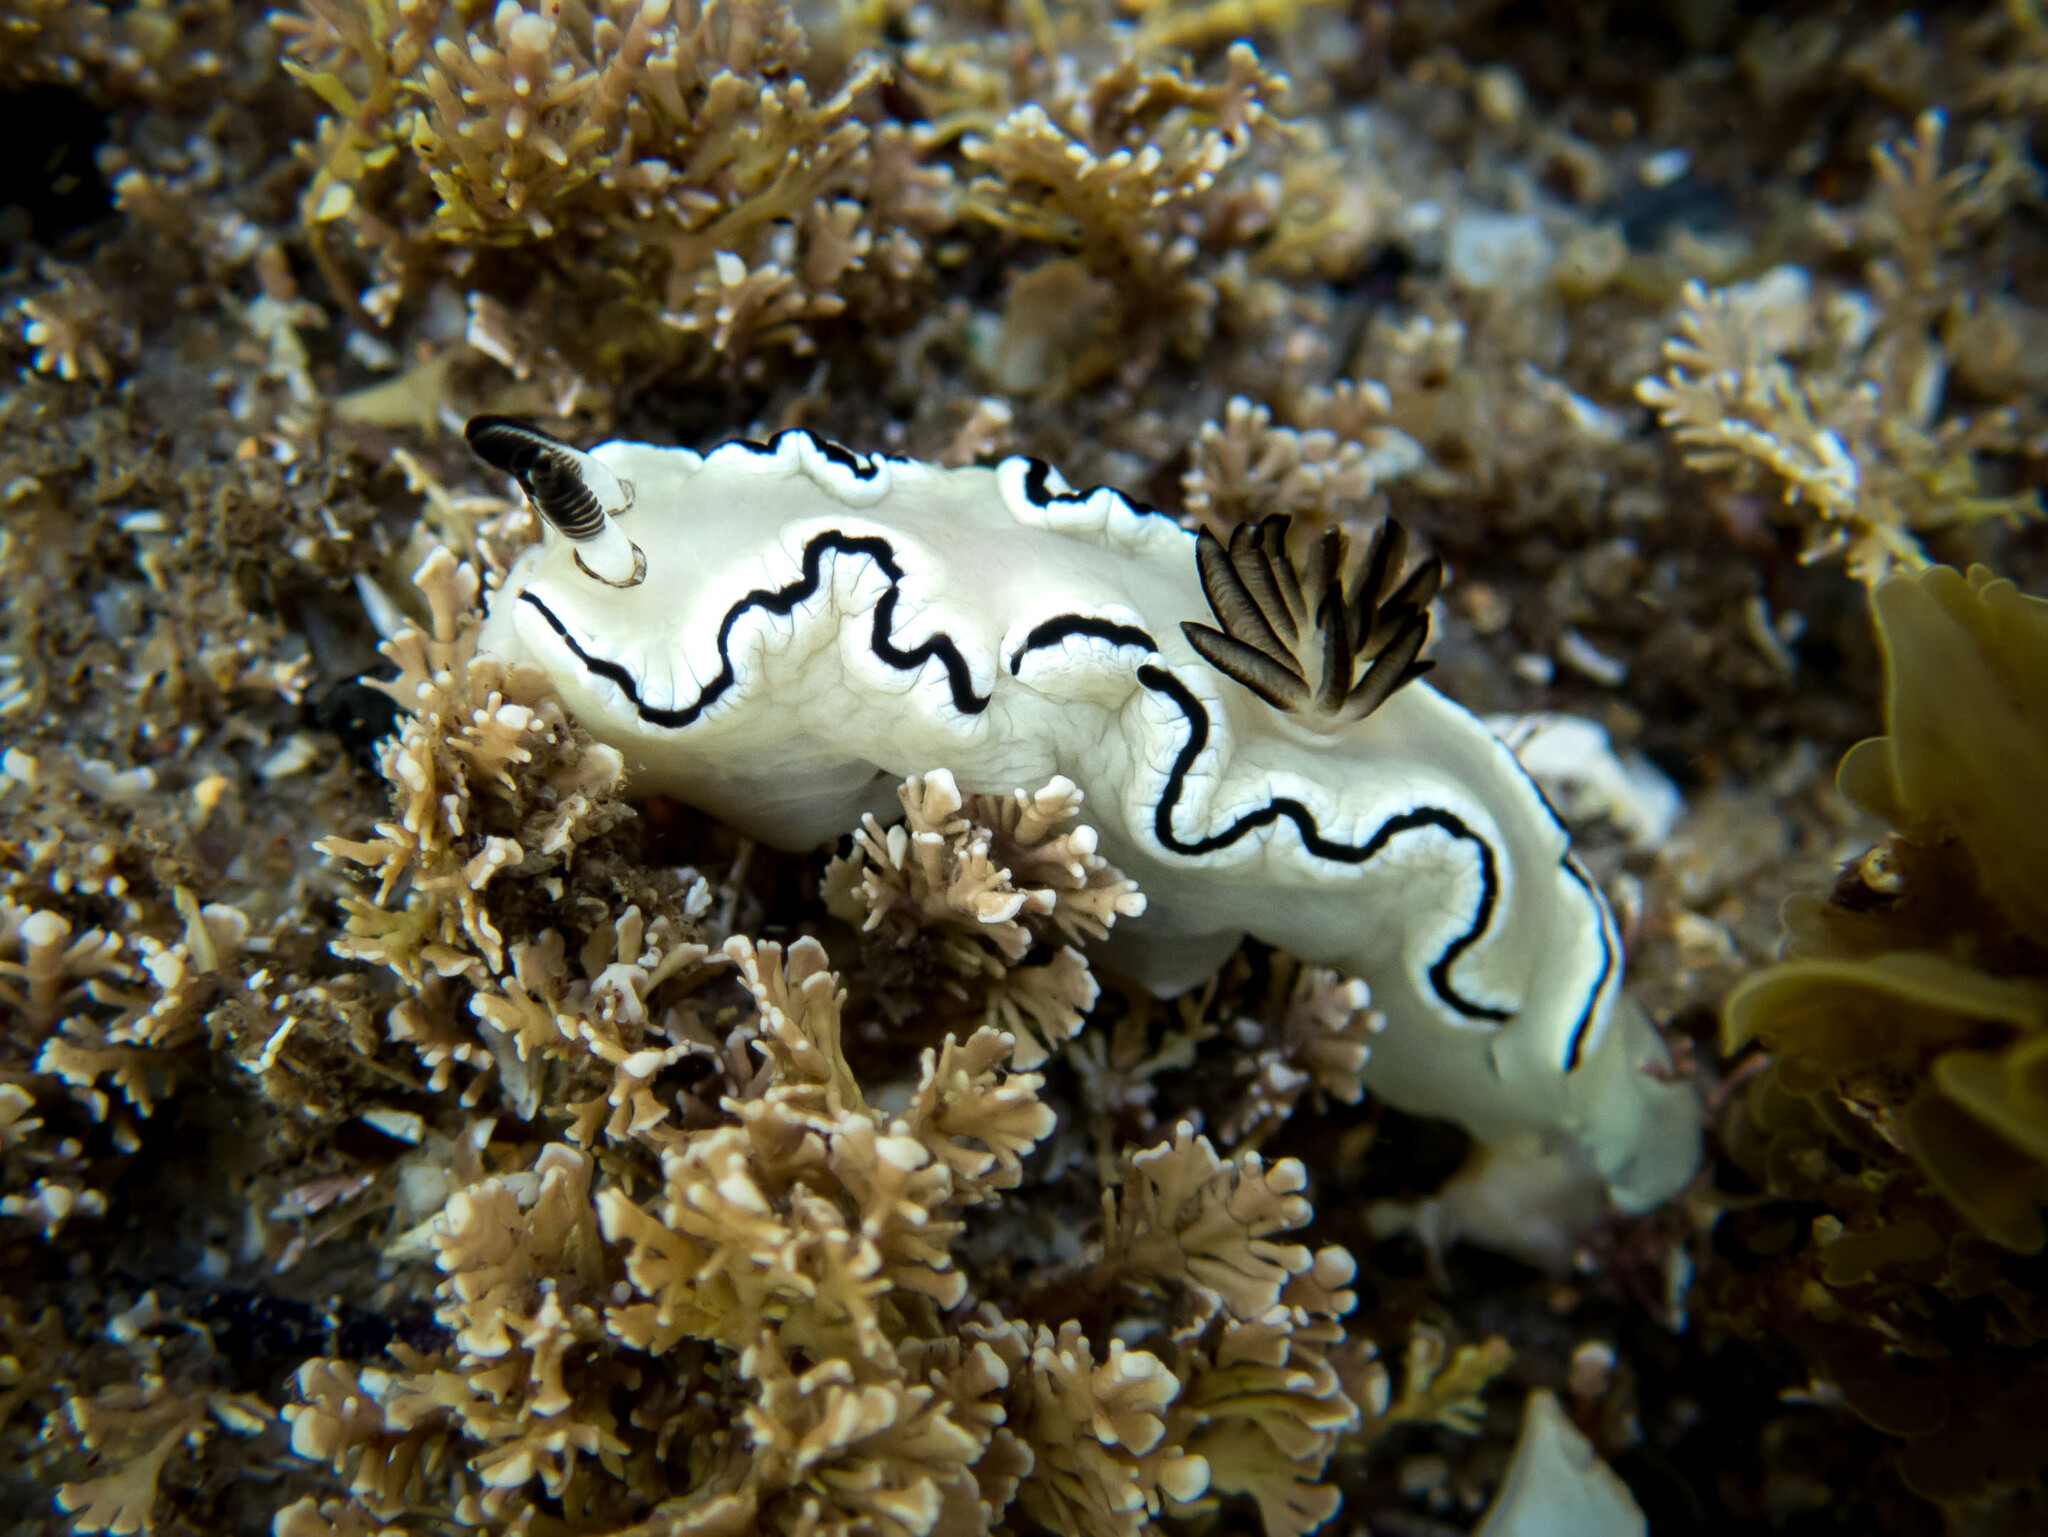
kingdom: Animalia
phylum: Mollusca
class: Gastropoda
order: Nudibranchia
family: Chromodorididae
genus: Doriprismatica
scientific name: Doriprismatica atromarginata
